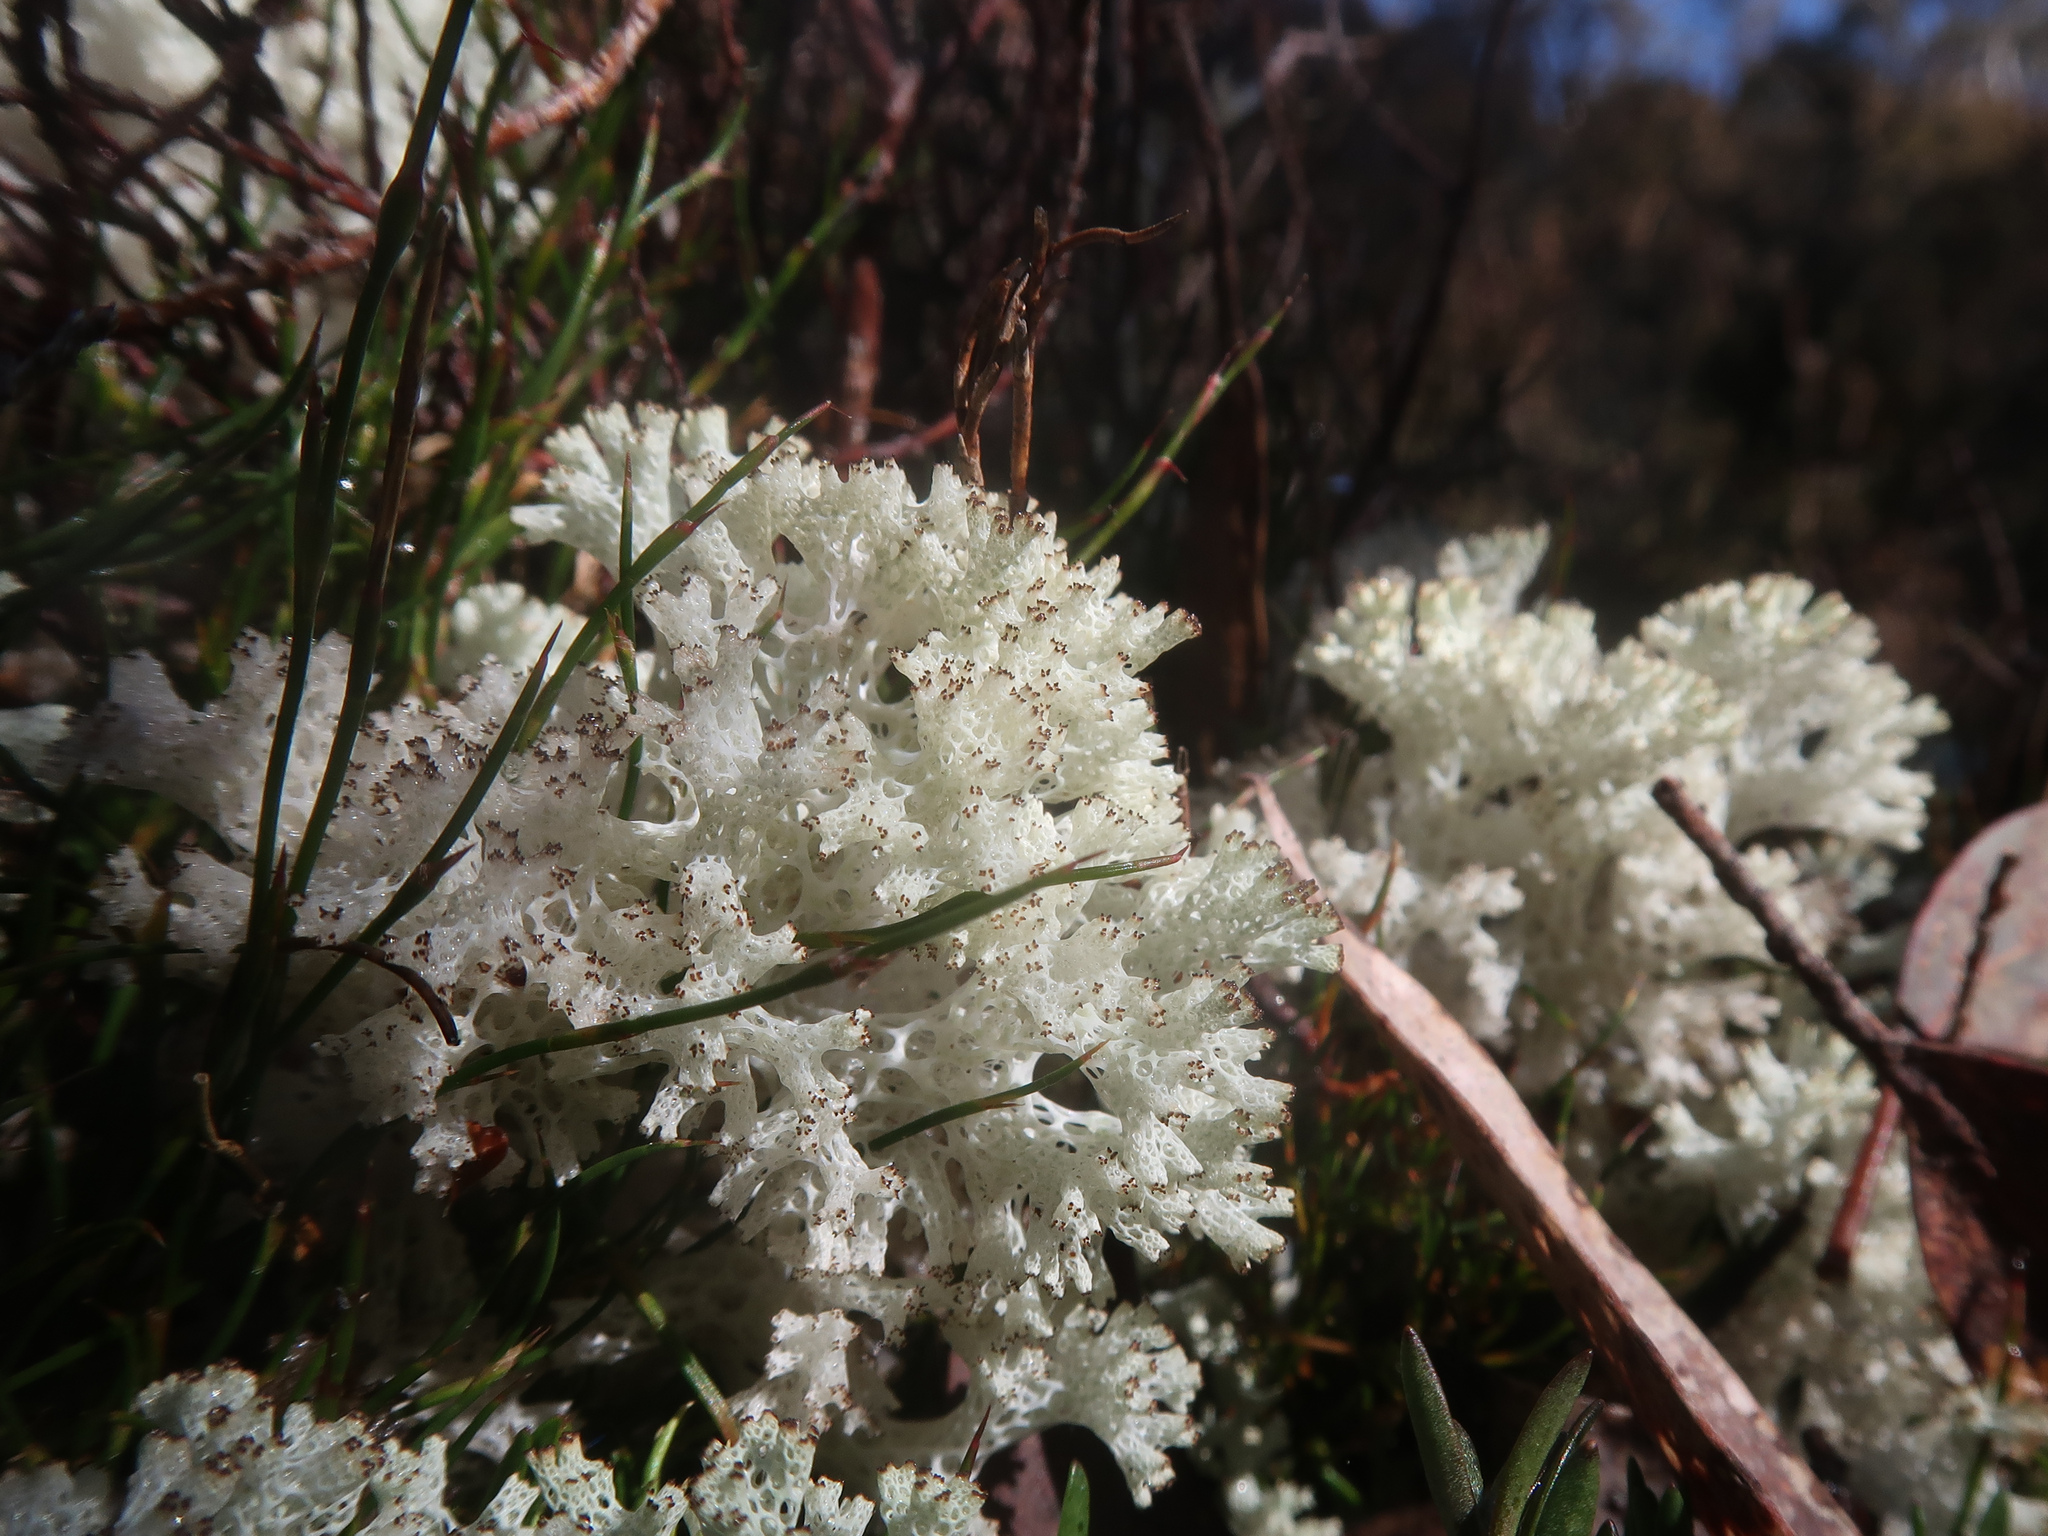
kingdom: Fungi
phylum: Ascomycota
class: Lecanoromycetes
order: Lecanorales
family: Cladoniaceae
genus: Pulchrocladia
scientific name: Pulchrocladia retipora
